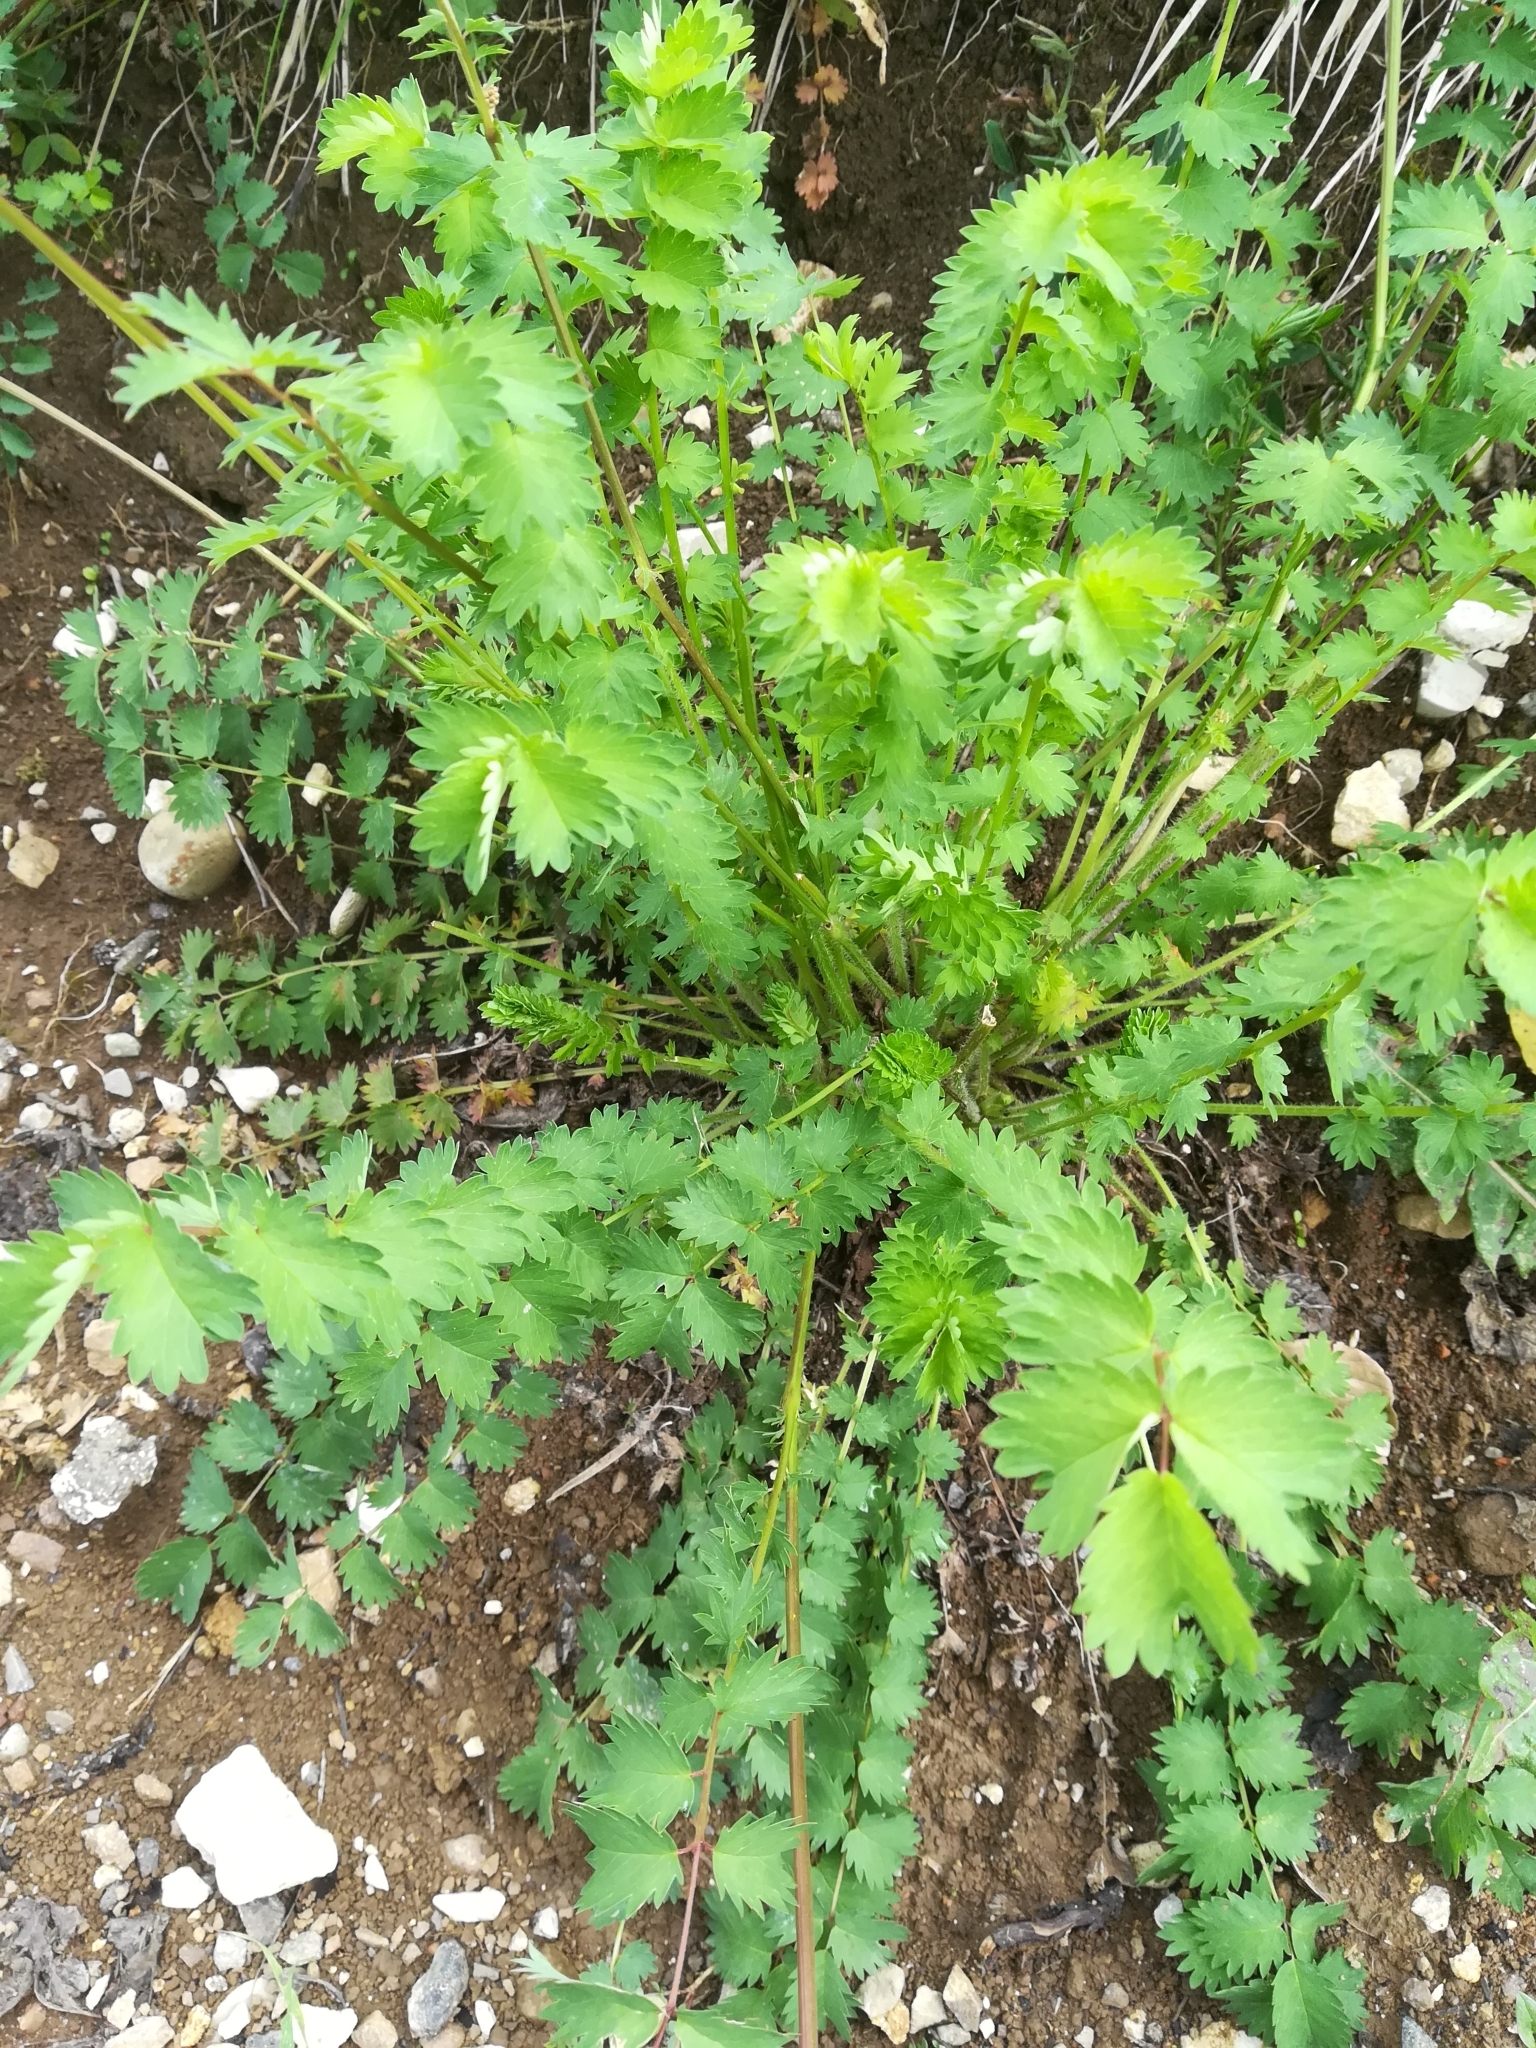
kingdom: Plantae
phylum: Tracheophyta
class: Magnoliopsida
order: Rosales
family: Rosaceae
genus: Poterium
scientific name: Poterium sanguisorba
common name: Salad burnet
